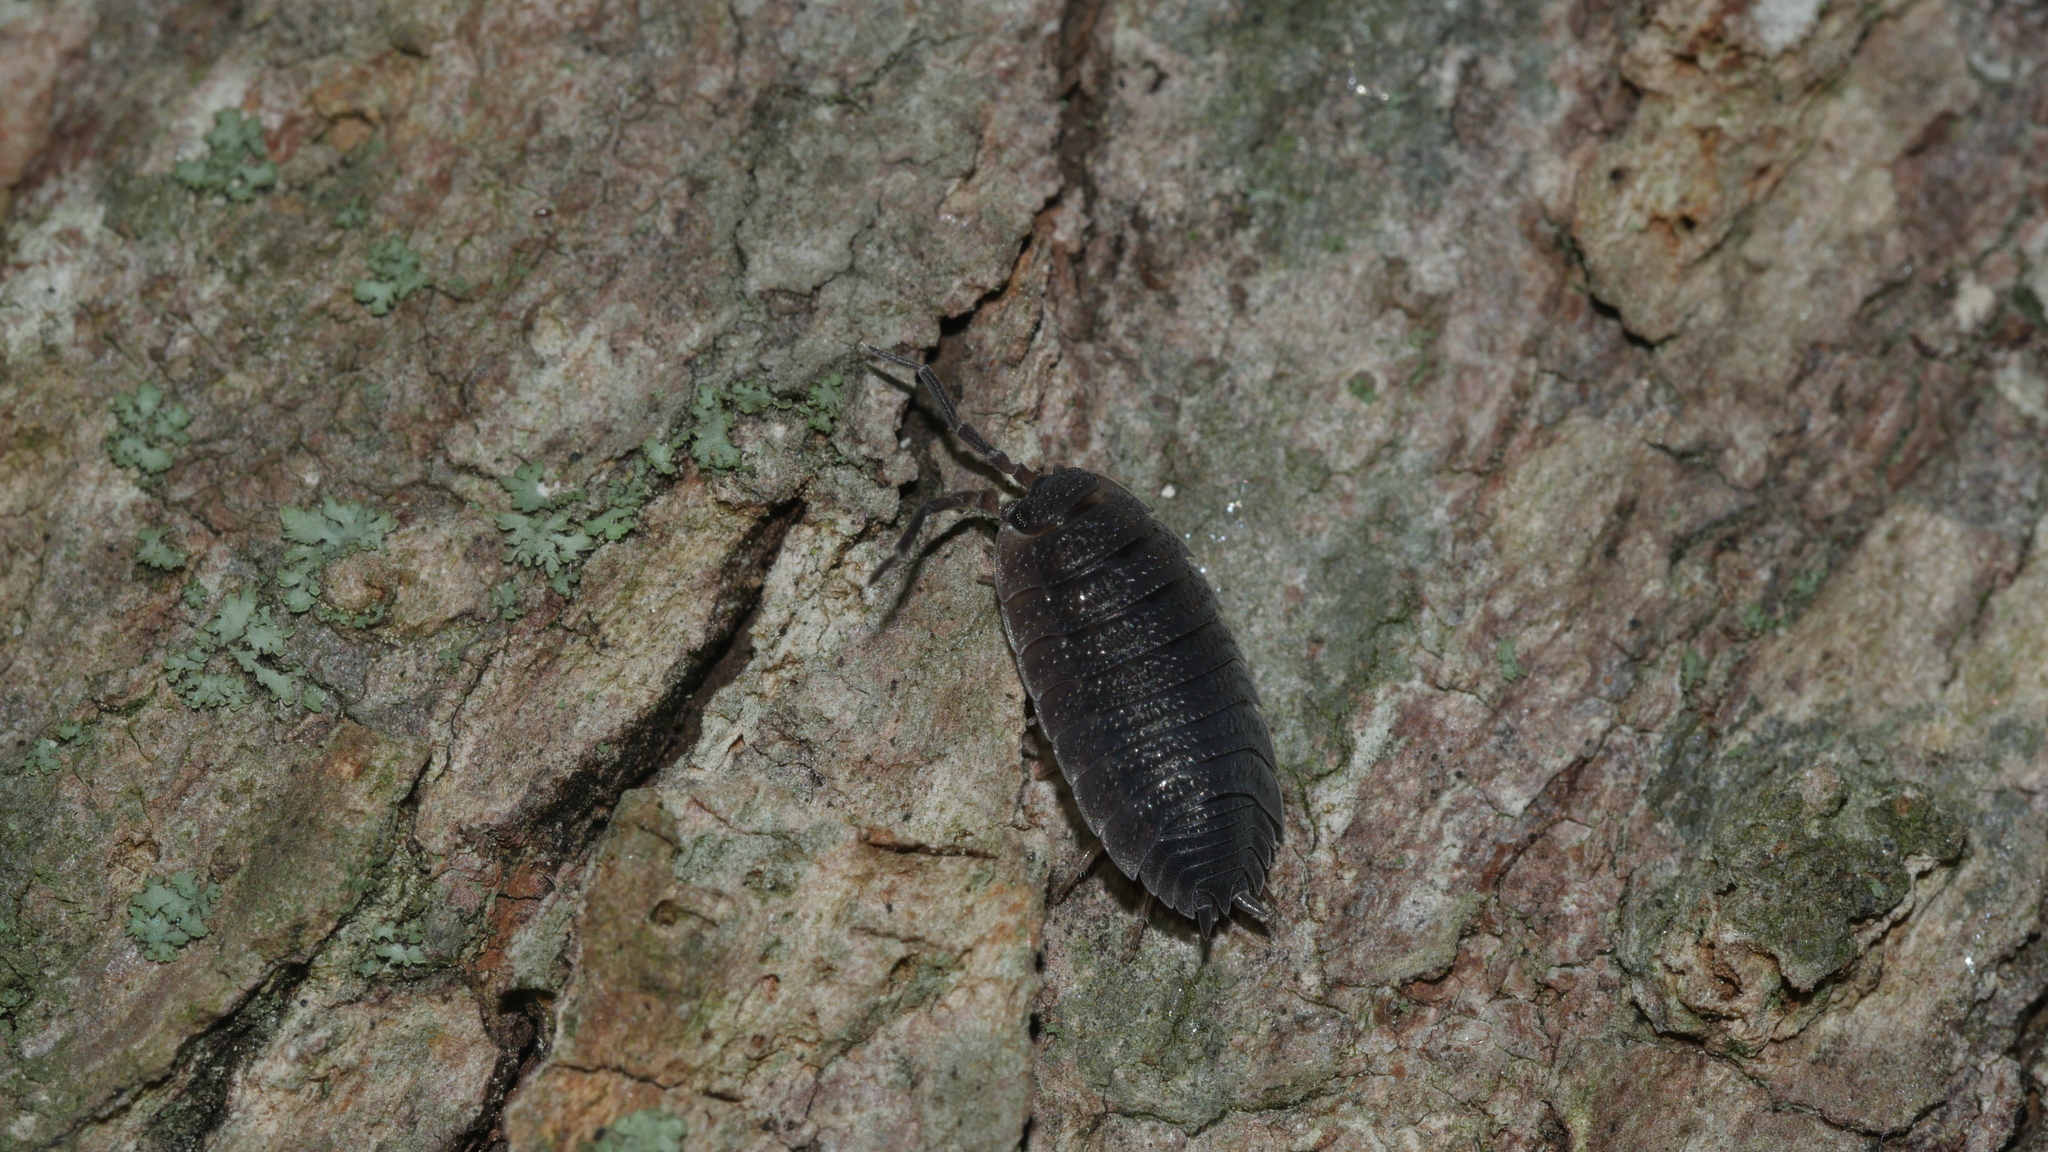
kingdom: Animalia
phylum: Arthropoda
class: Malacostraca
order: Isopoda
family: Porcellionidae
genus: Porcellio
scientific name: Porcellio scaber
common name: Common rough woodlouse
